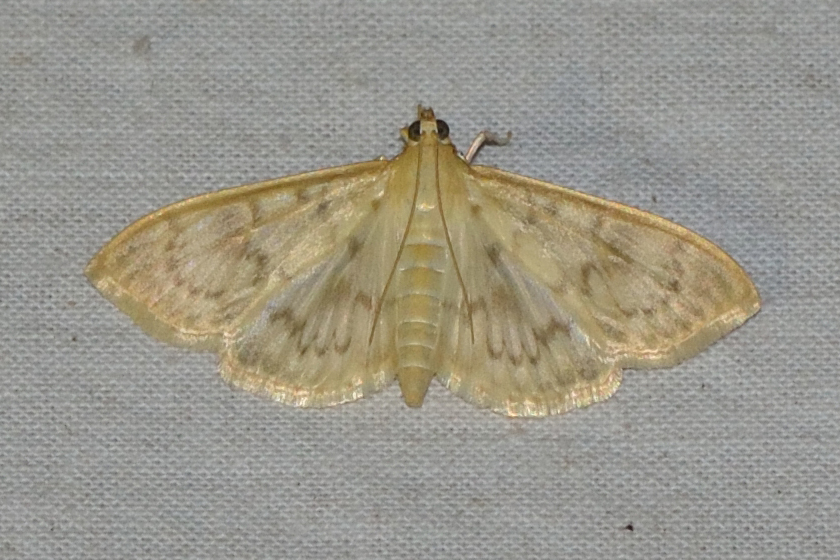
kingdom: Animalia
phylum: Arthropoda
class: Insecta
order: Lepidoptera
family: Crambidae
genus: Patania
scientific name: Patania ruralis
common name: Mother of pearl
